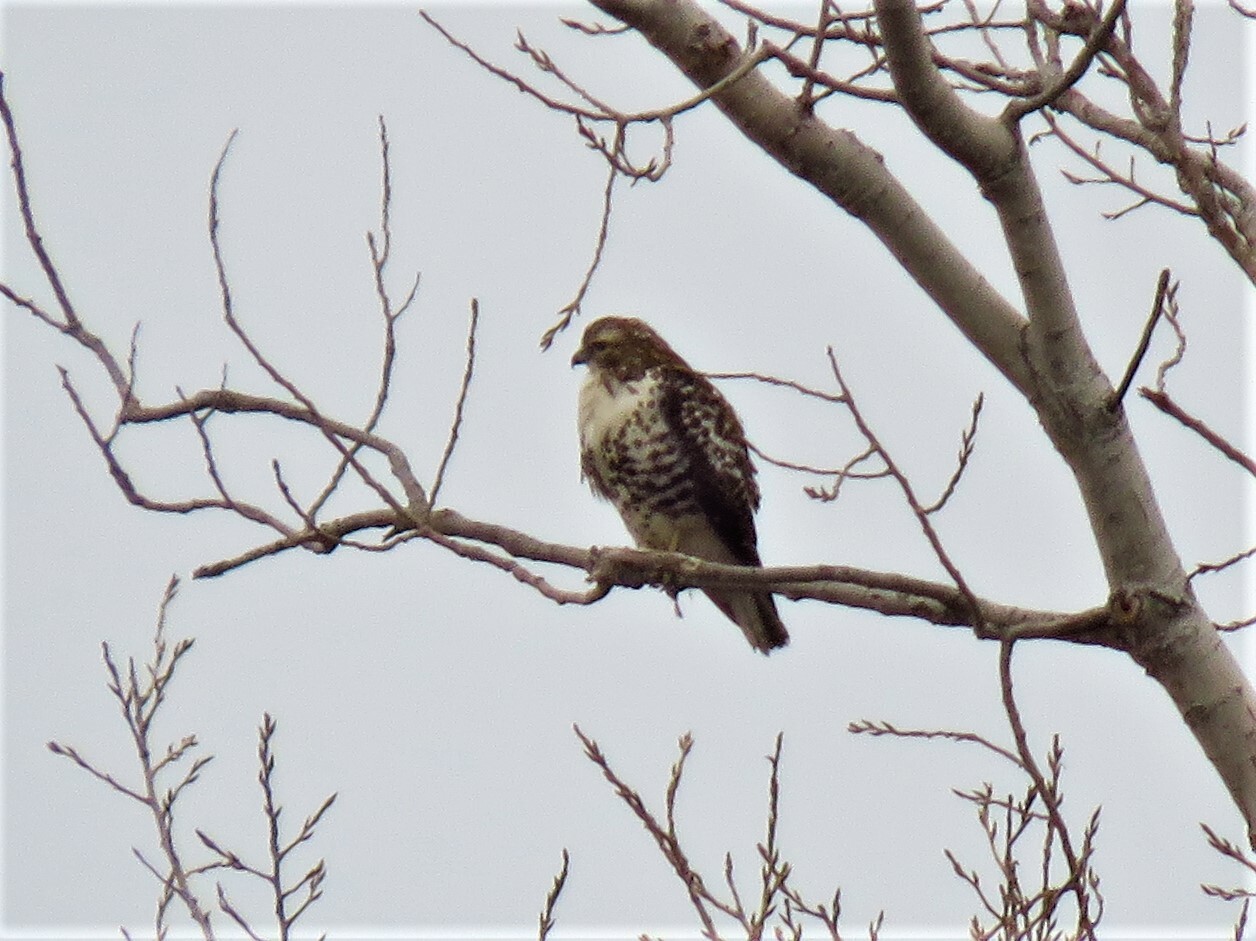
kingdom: Animalia
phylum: Chordata
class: Aves
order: Accipitriformes
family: Accipitridae
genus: Buteo
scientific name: Buteo jamaicensis
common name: Red-tailed hawk
